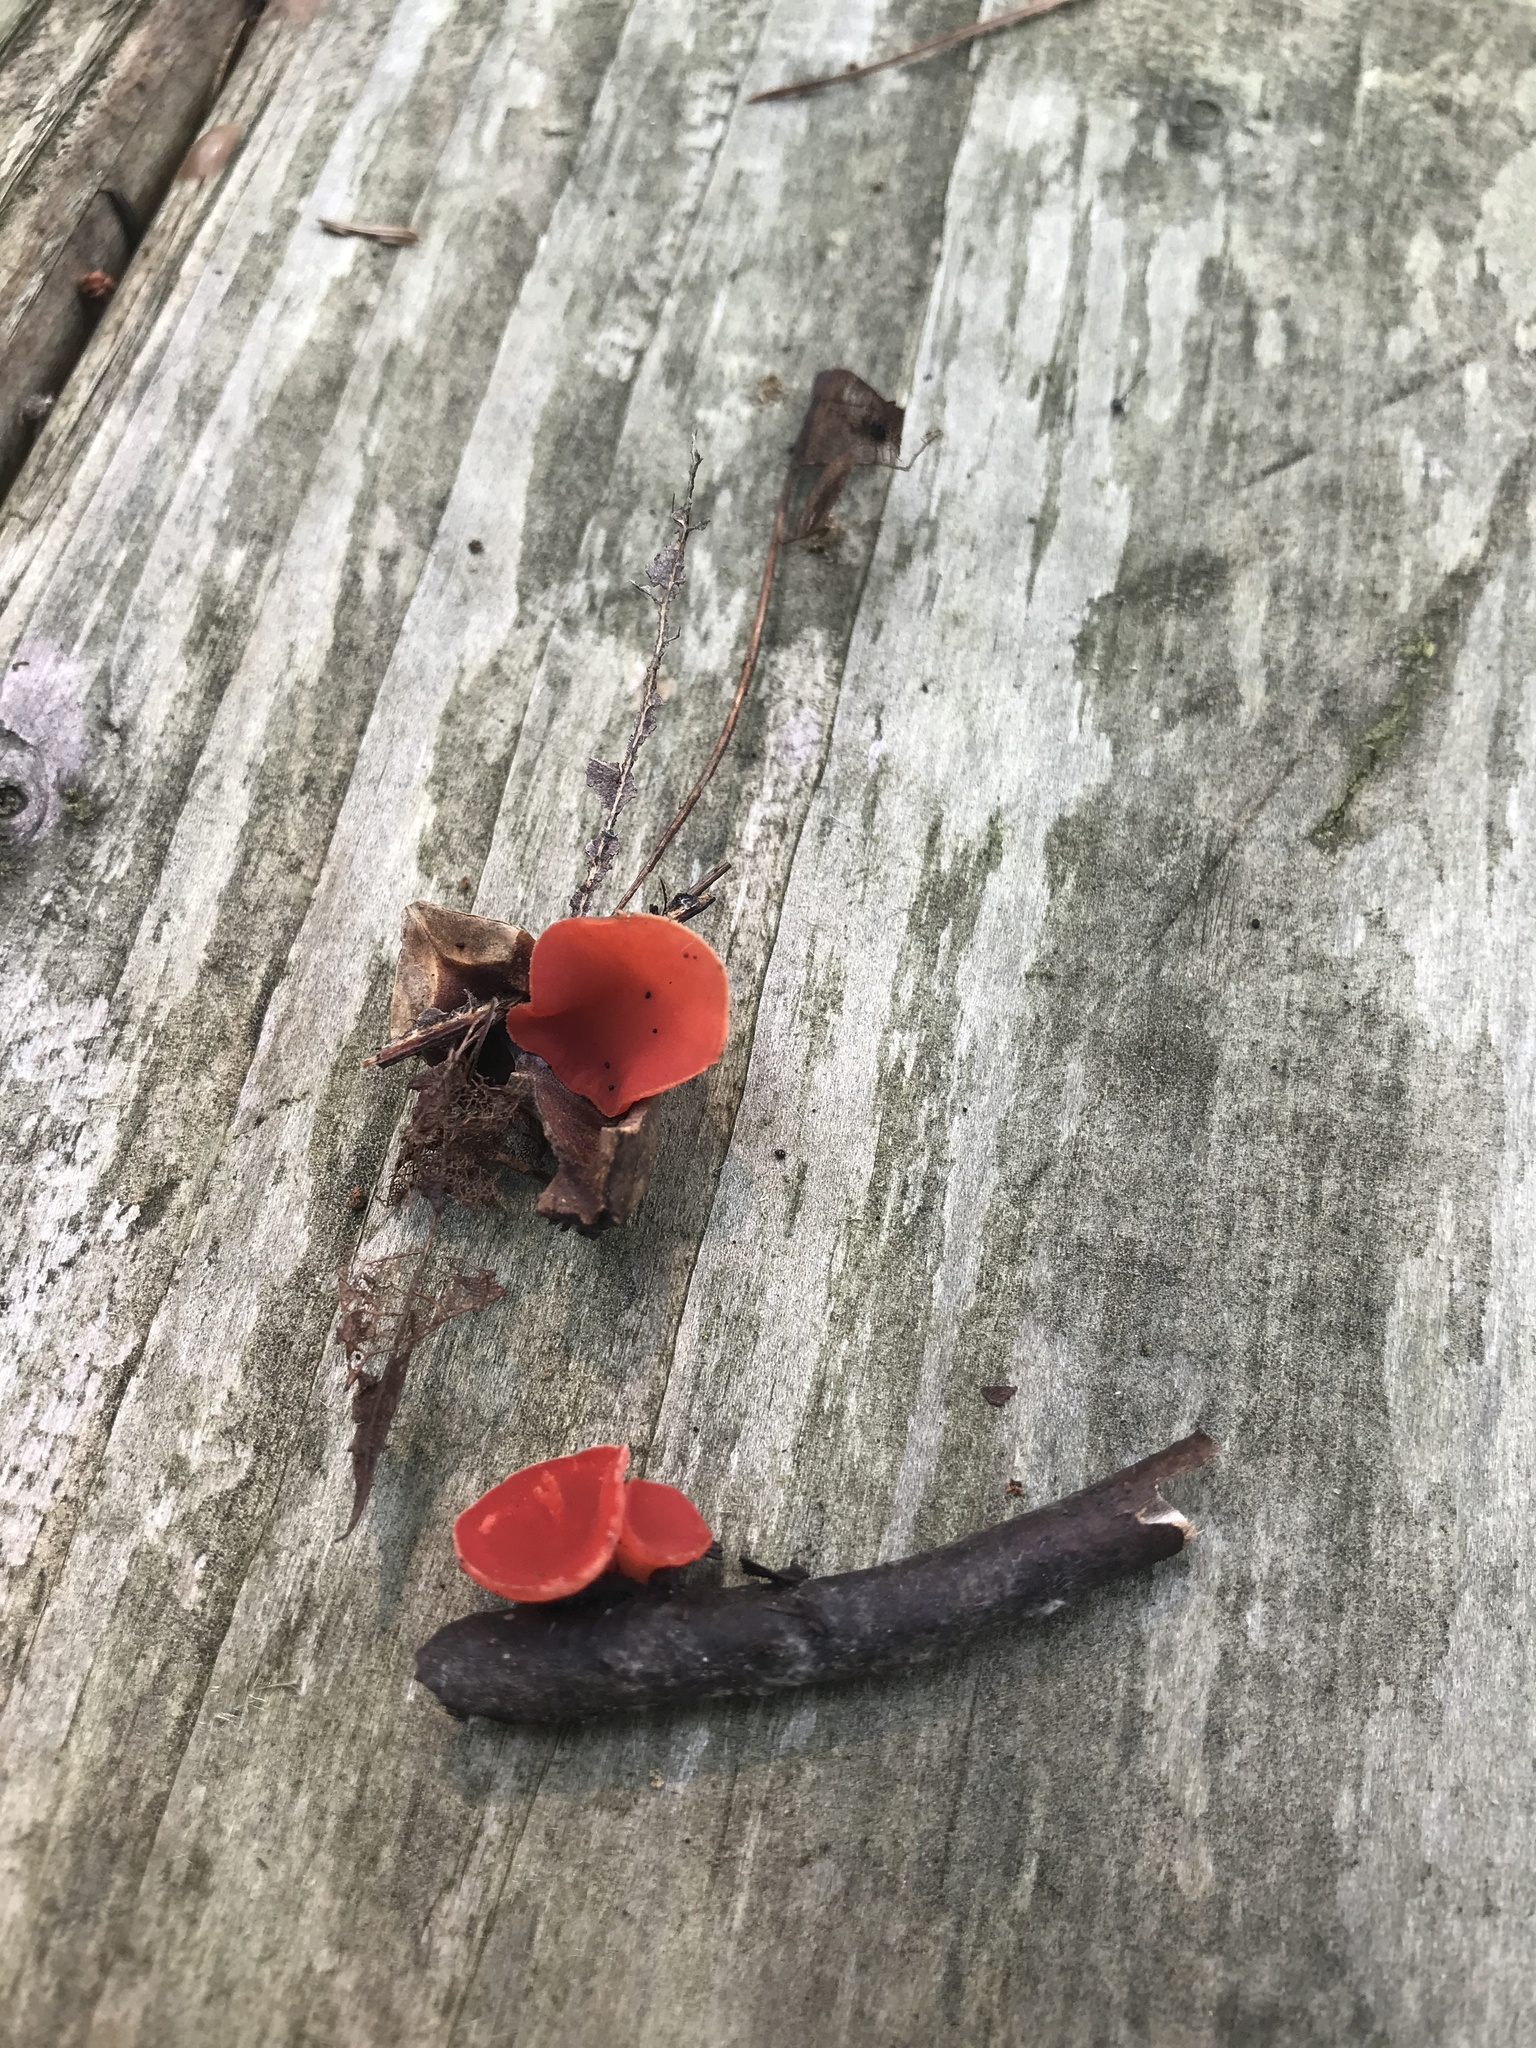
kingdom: Fungi
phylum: Ascomycota
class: Pezizomycetes
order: Pezizales
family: Sarcoscyphaceae
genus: Sarcoscypha
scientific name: Sarcoscypha occidentalis
